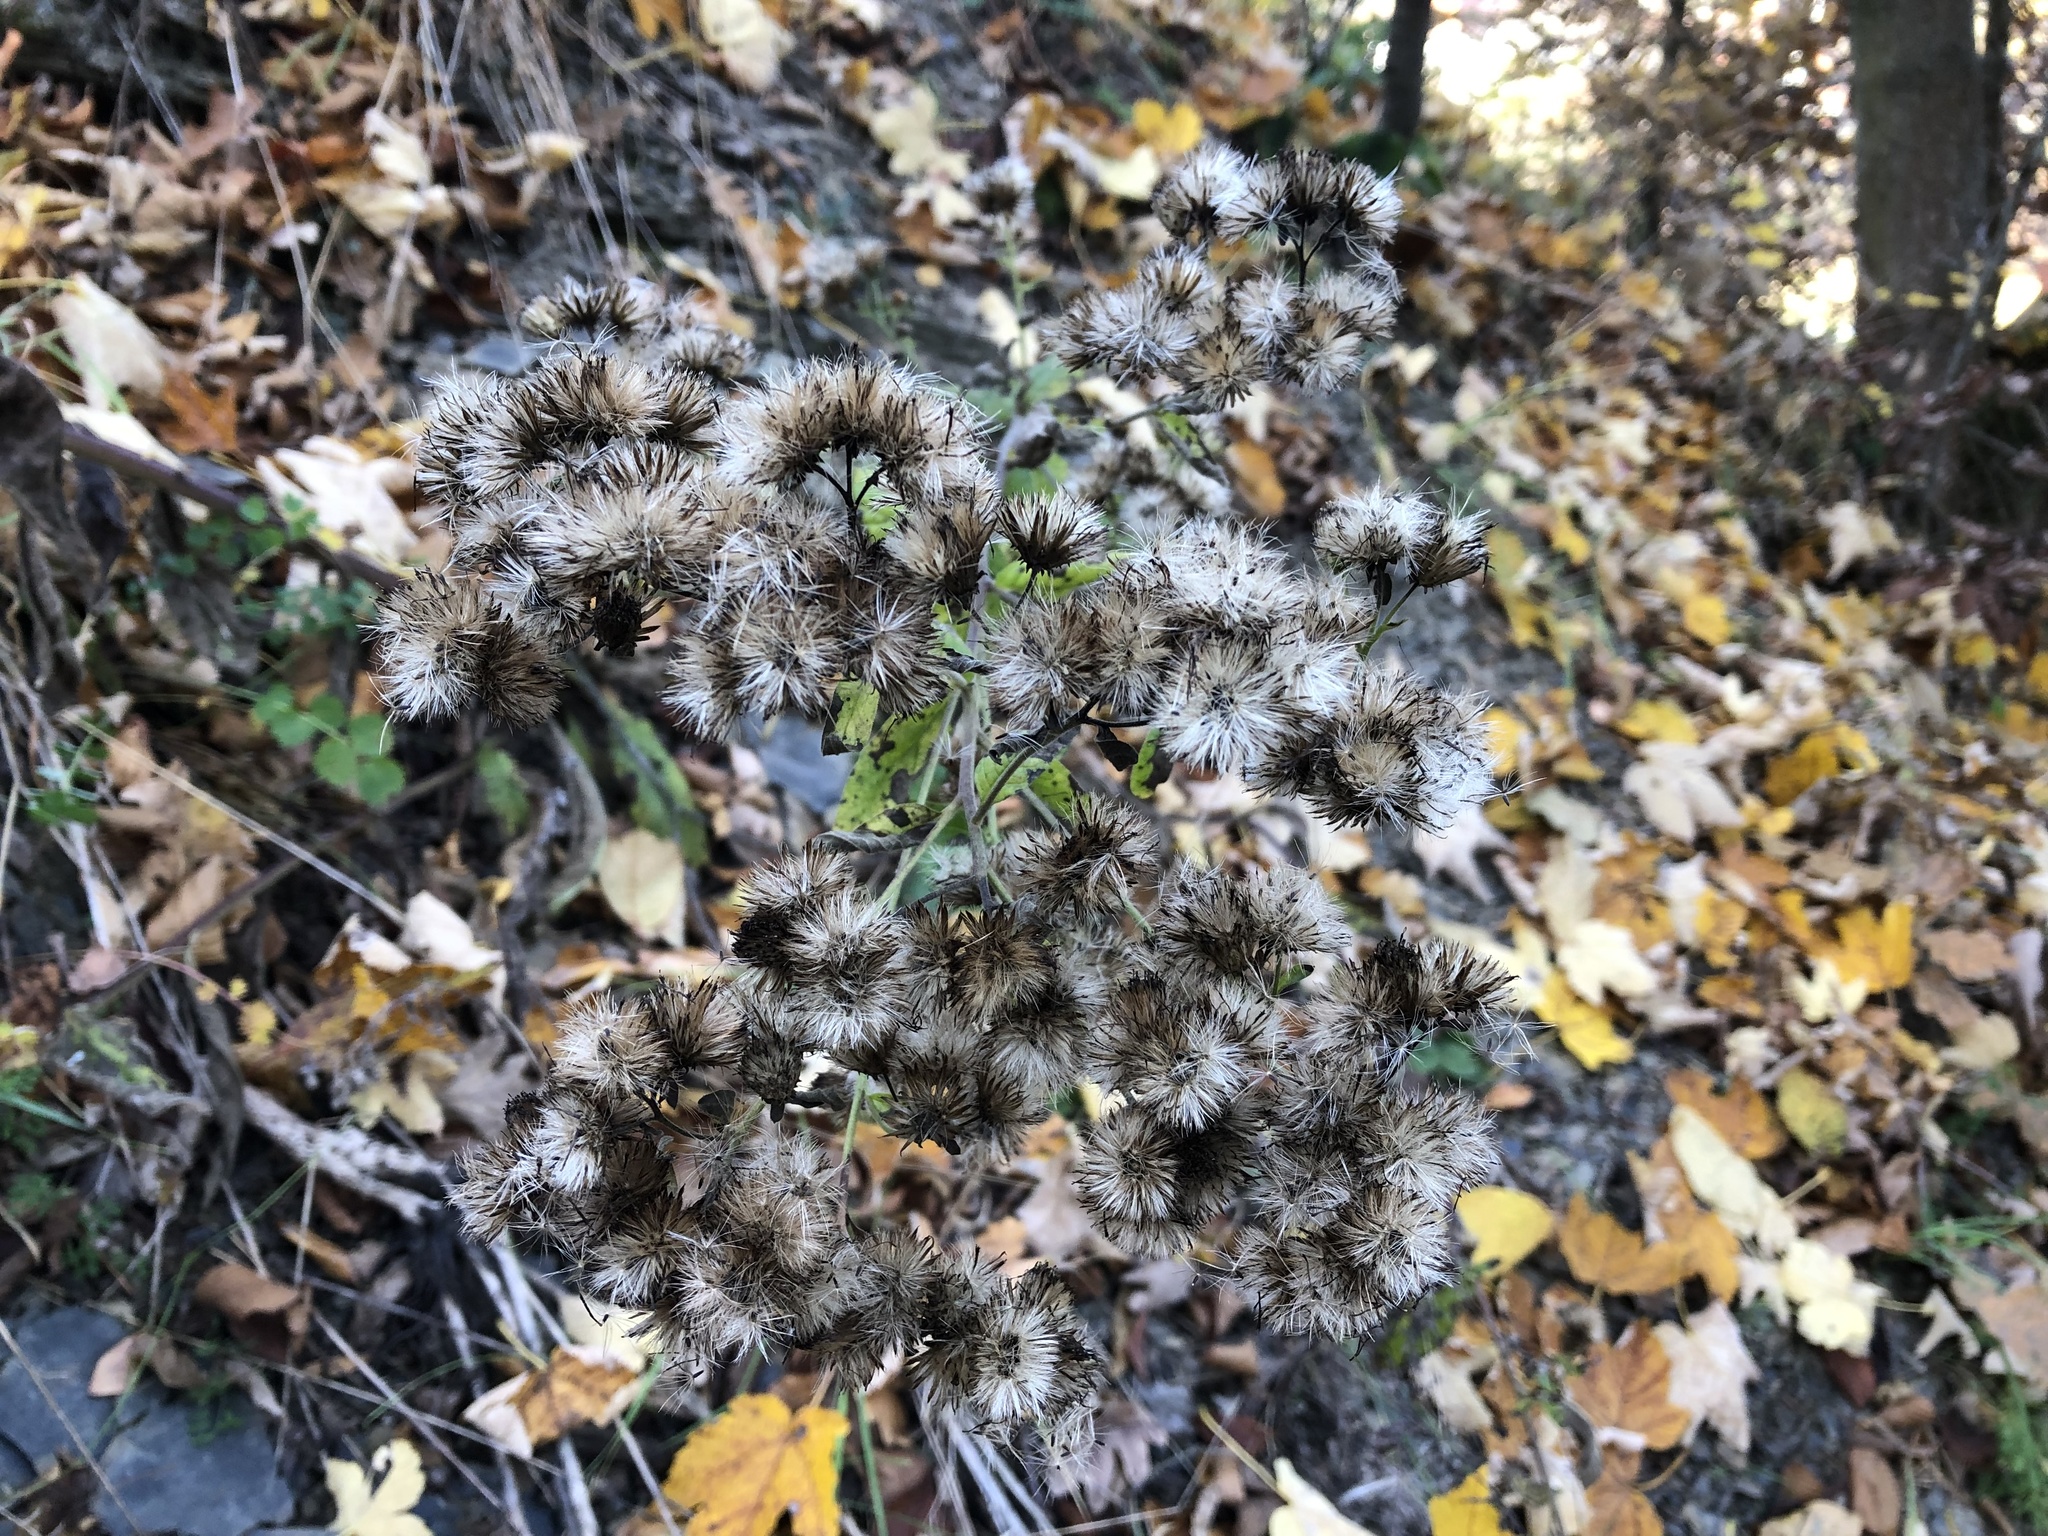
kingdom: Plantae
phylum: Tracheophyta
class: Magnoliopsida
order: Asterales
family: Asteraceae
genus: Pentanema
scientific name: Pentanema squarrosum
